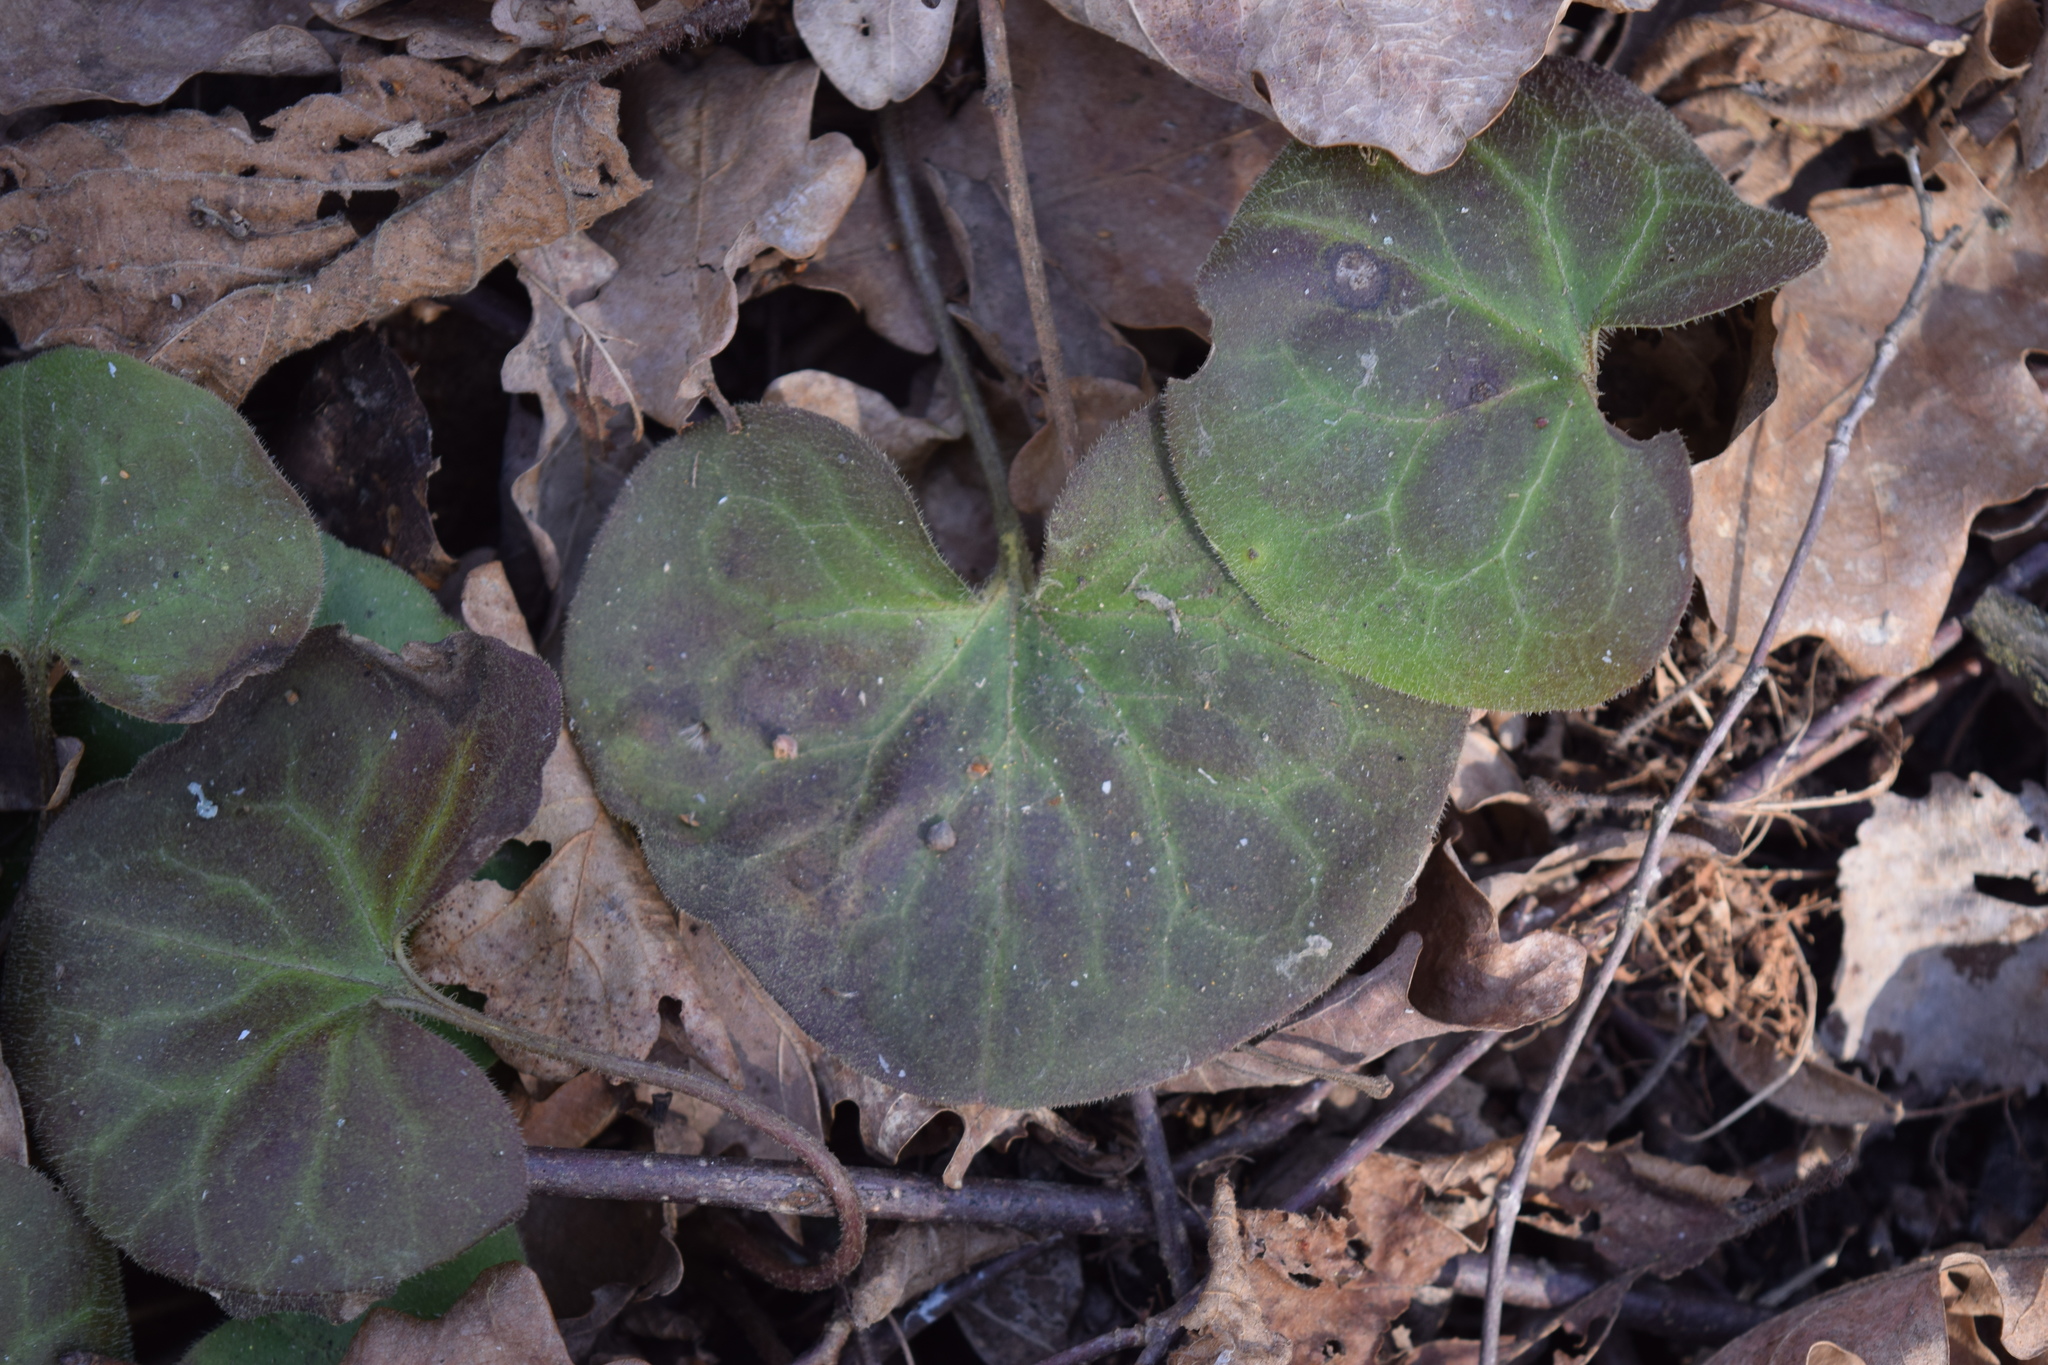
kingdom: Plantae
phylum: Tracheophyta
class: Magnoliopsida
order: Piperales
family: Aristolochiaceae
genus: Asarum
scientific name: Asarum europaeum
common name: Asarabacca
